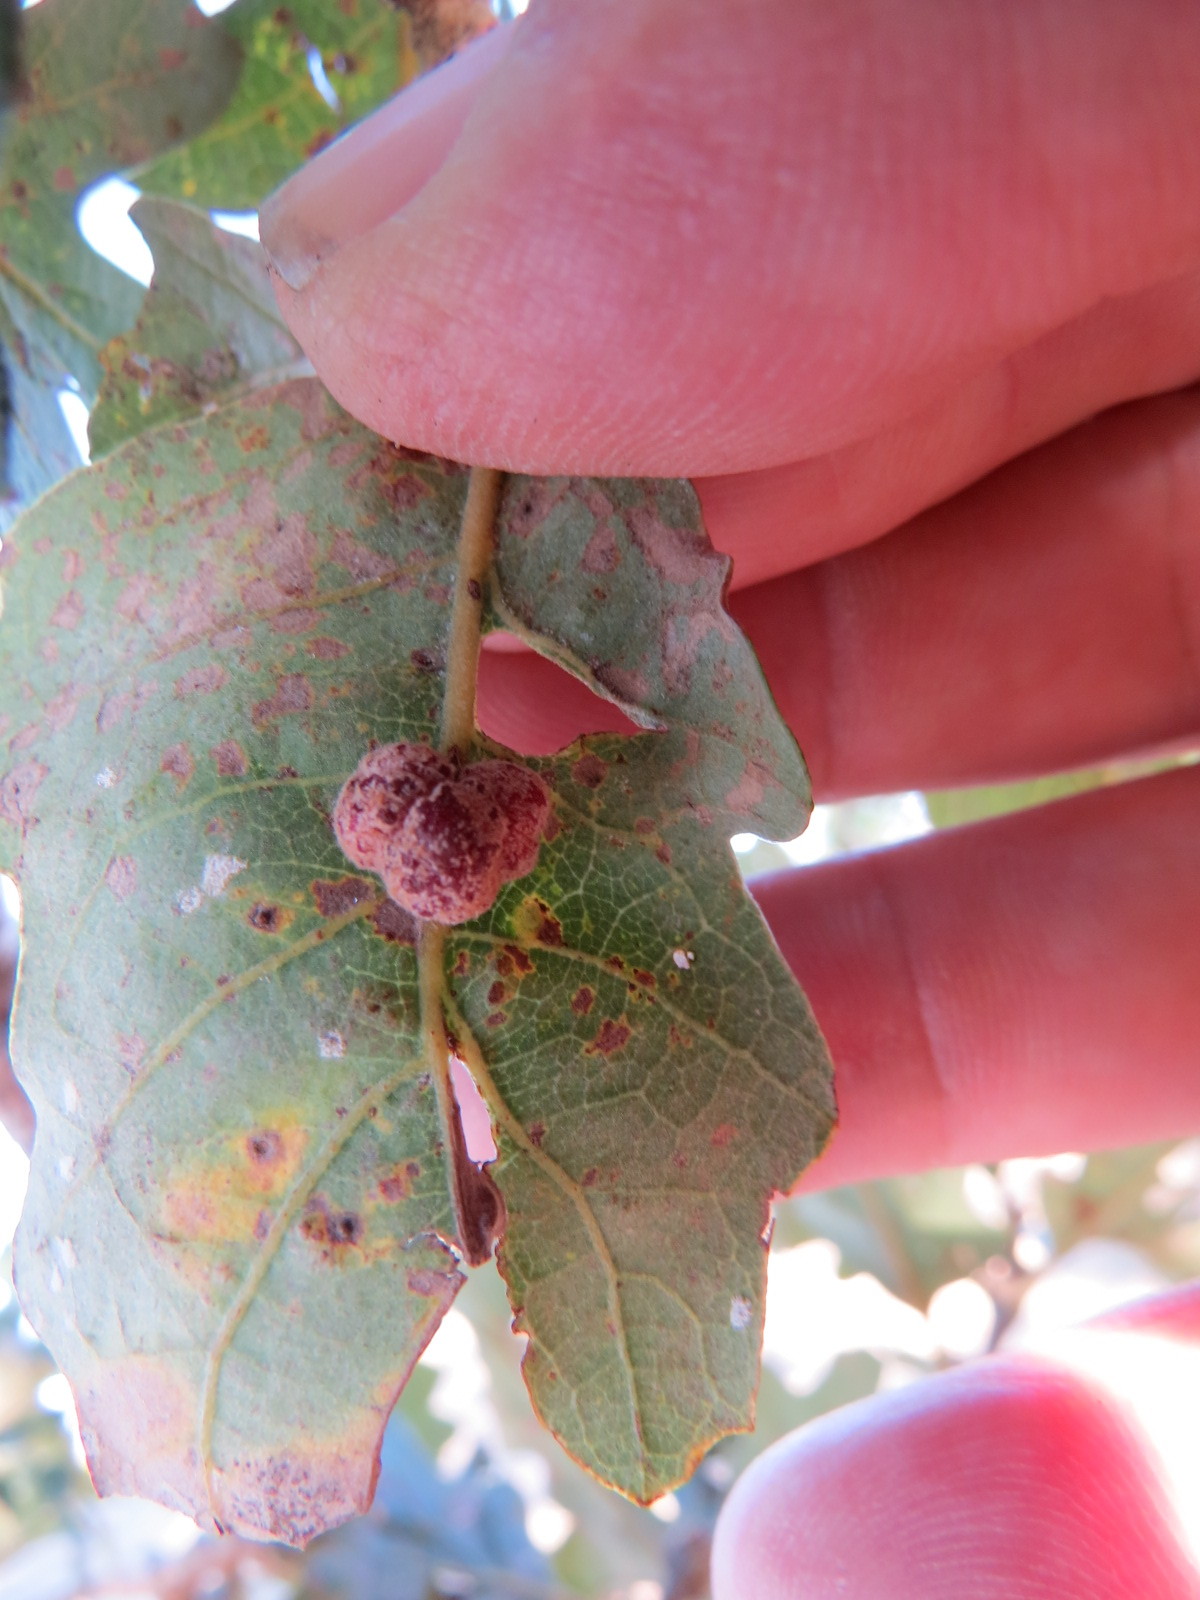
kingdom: Animalia
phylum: Arthropoda
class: Insecta
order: Hymenoptera
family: Cynipidae
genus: Andricus
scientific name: Andricus
